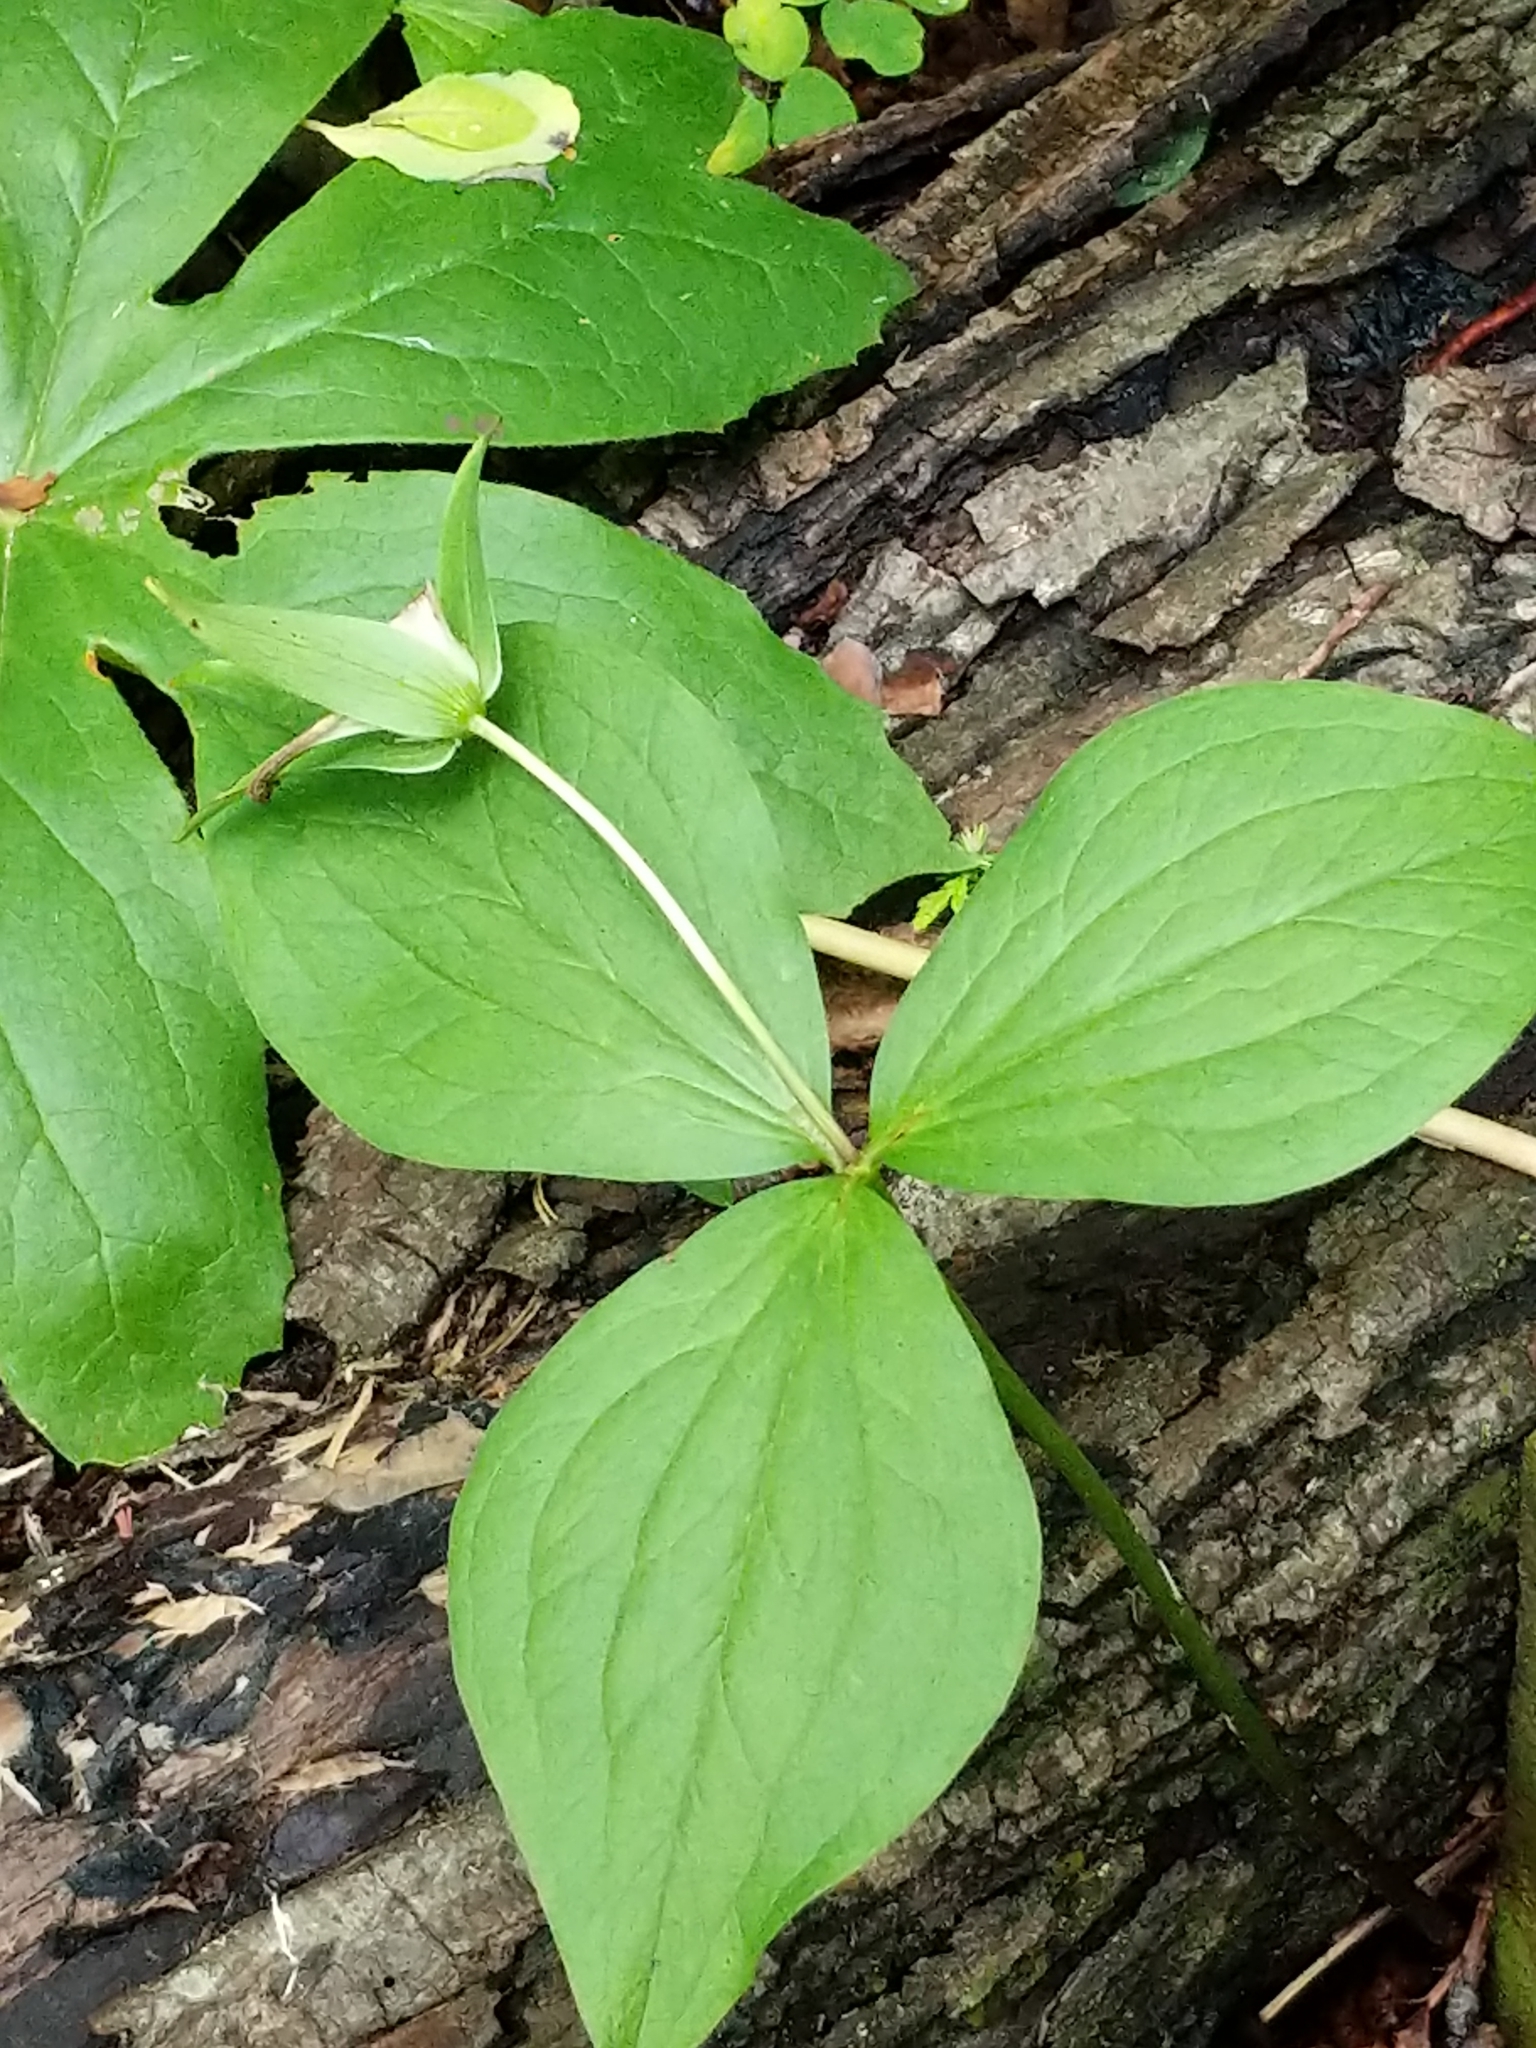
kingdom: Plantae
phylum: Tracheophyta
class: Liliopsida
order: Liliales
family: Melanthiaceae
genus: Trillium
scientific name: Trillium grandiflorum
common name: Great white trillium
